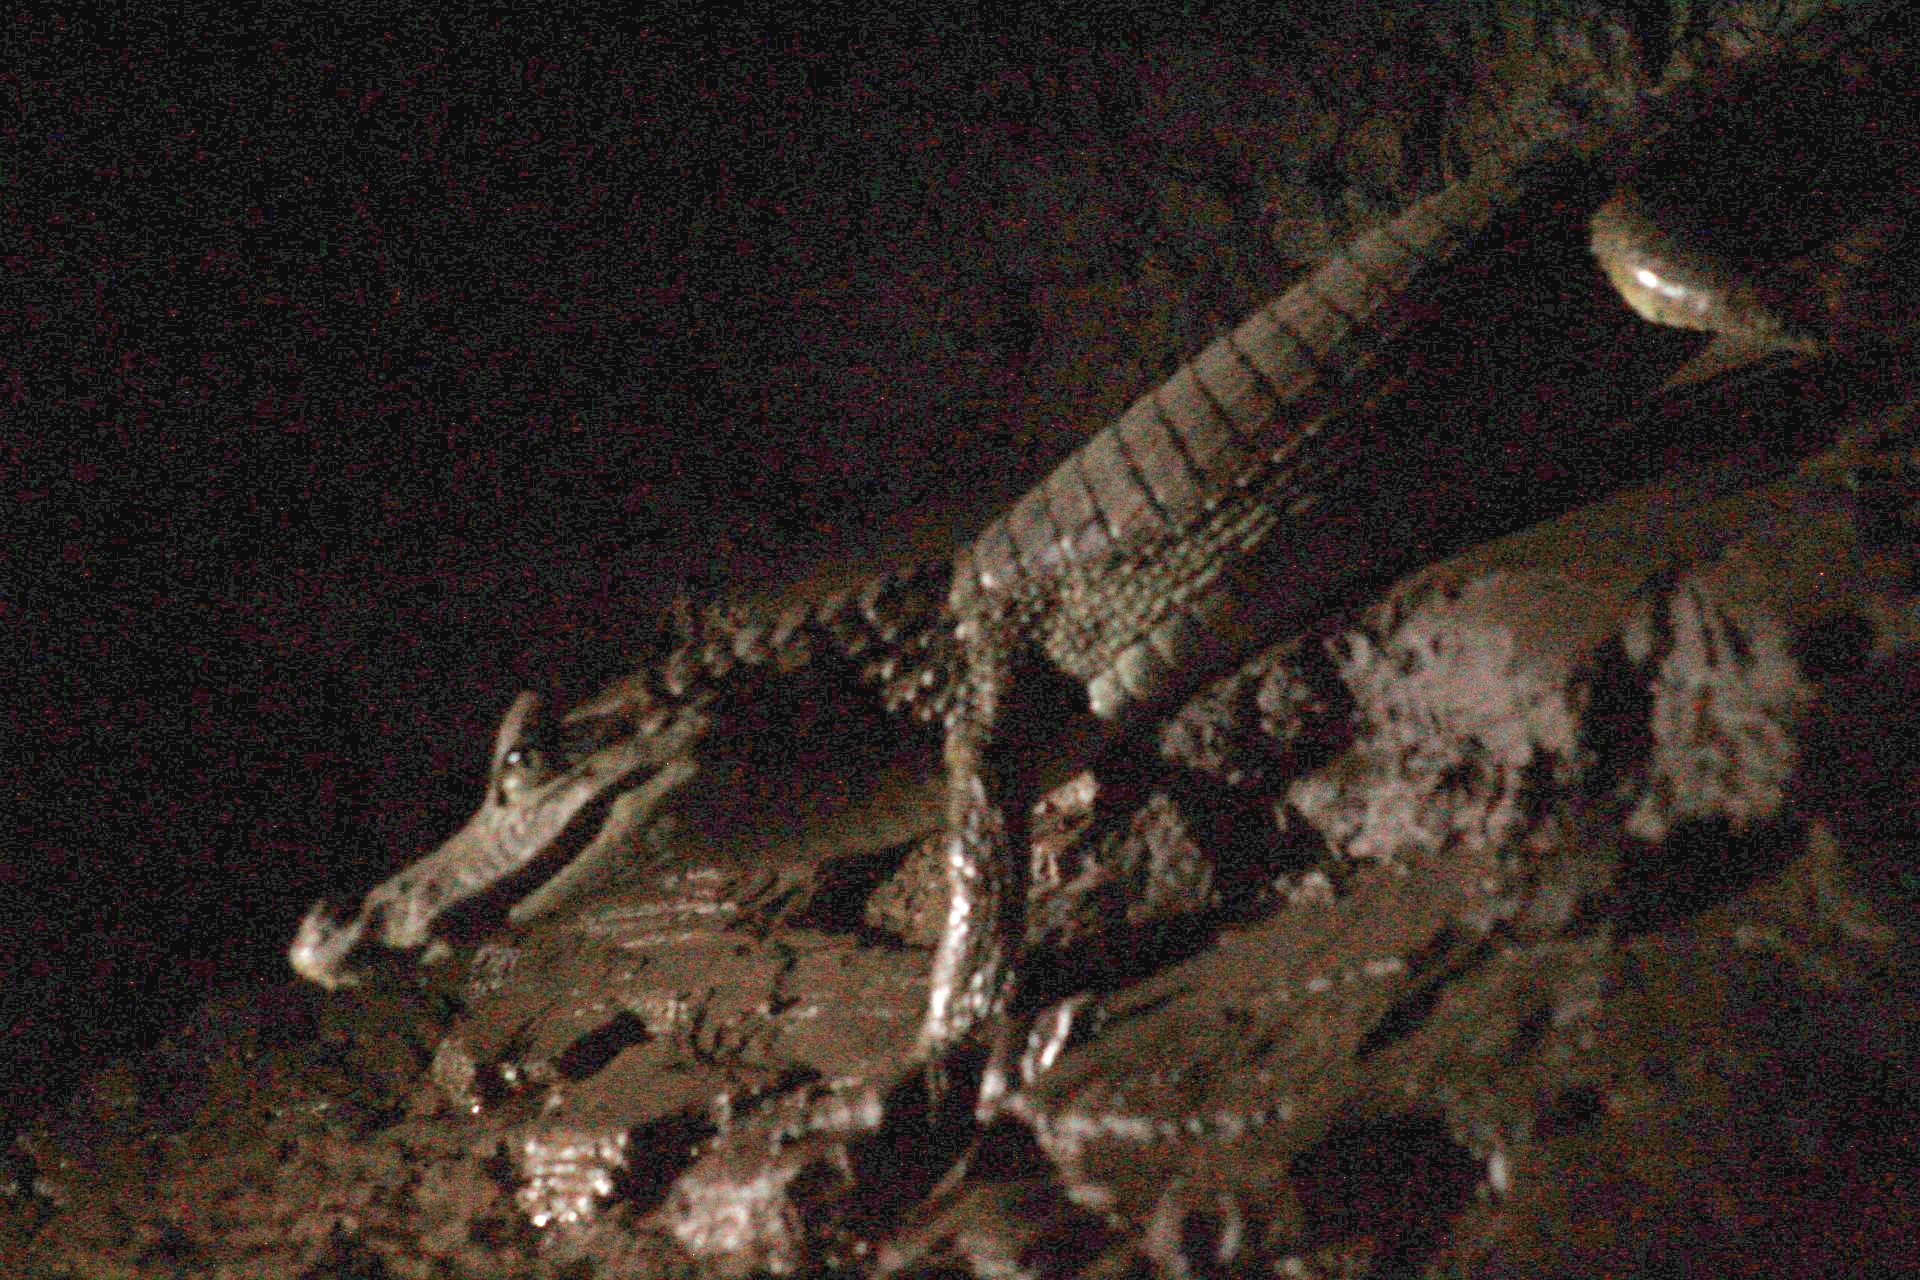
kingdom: Animalia
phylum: Chordata
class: Crocodylia
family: Alligatoridae
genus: Caiman
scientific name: Caiman crocodilus
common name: Common caiman
